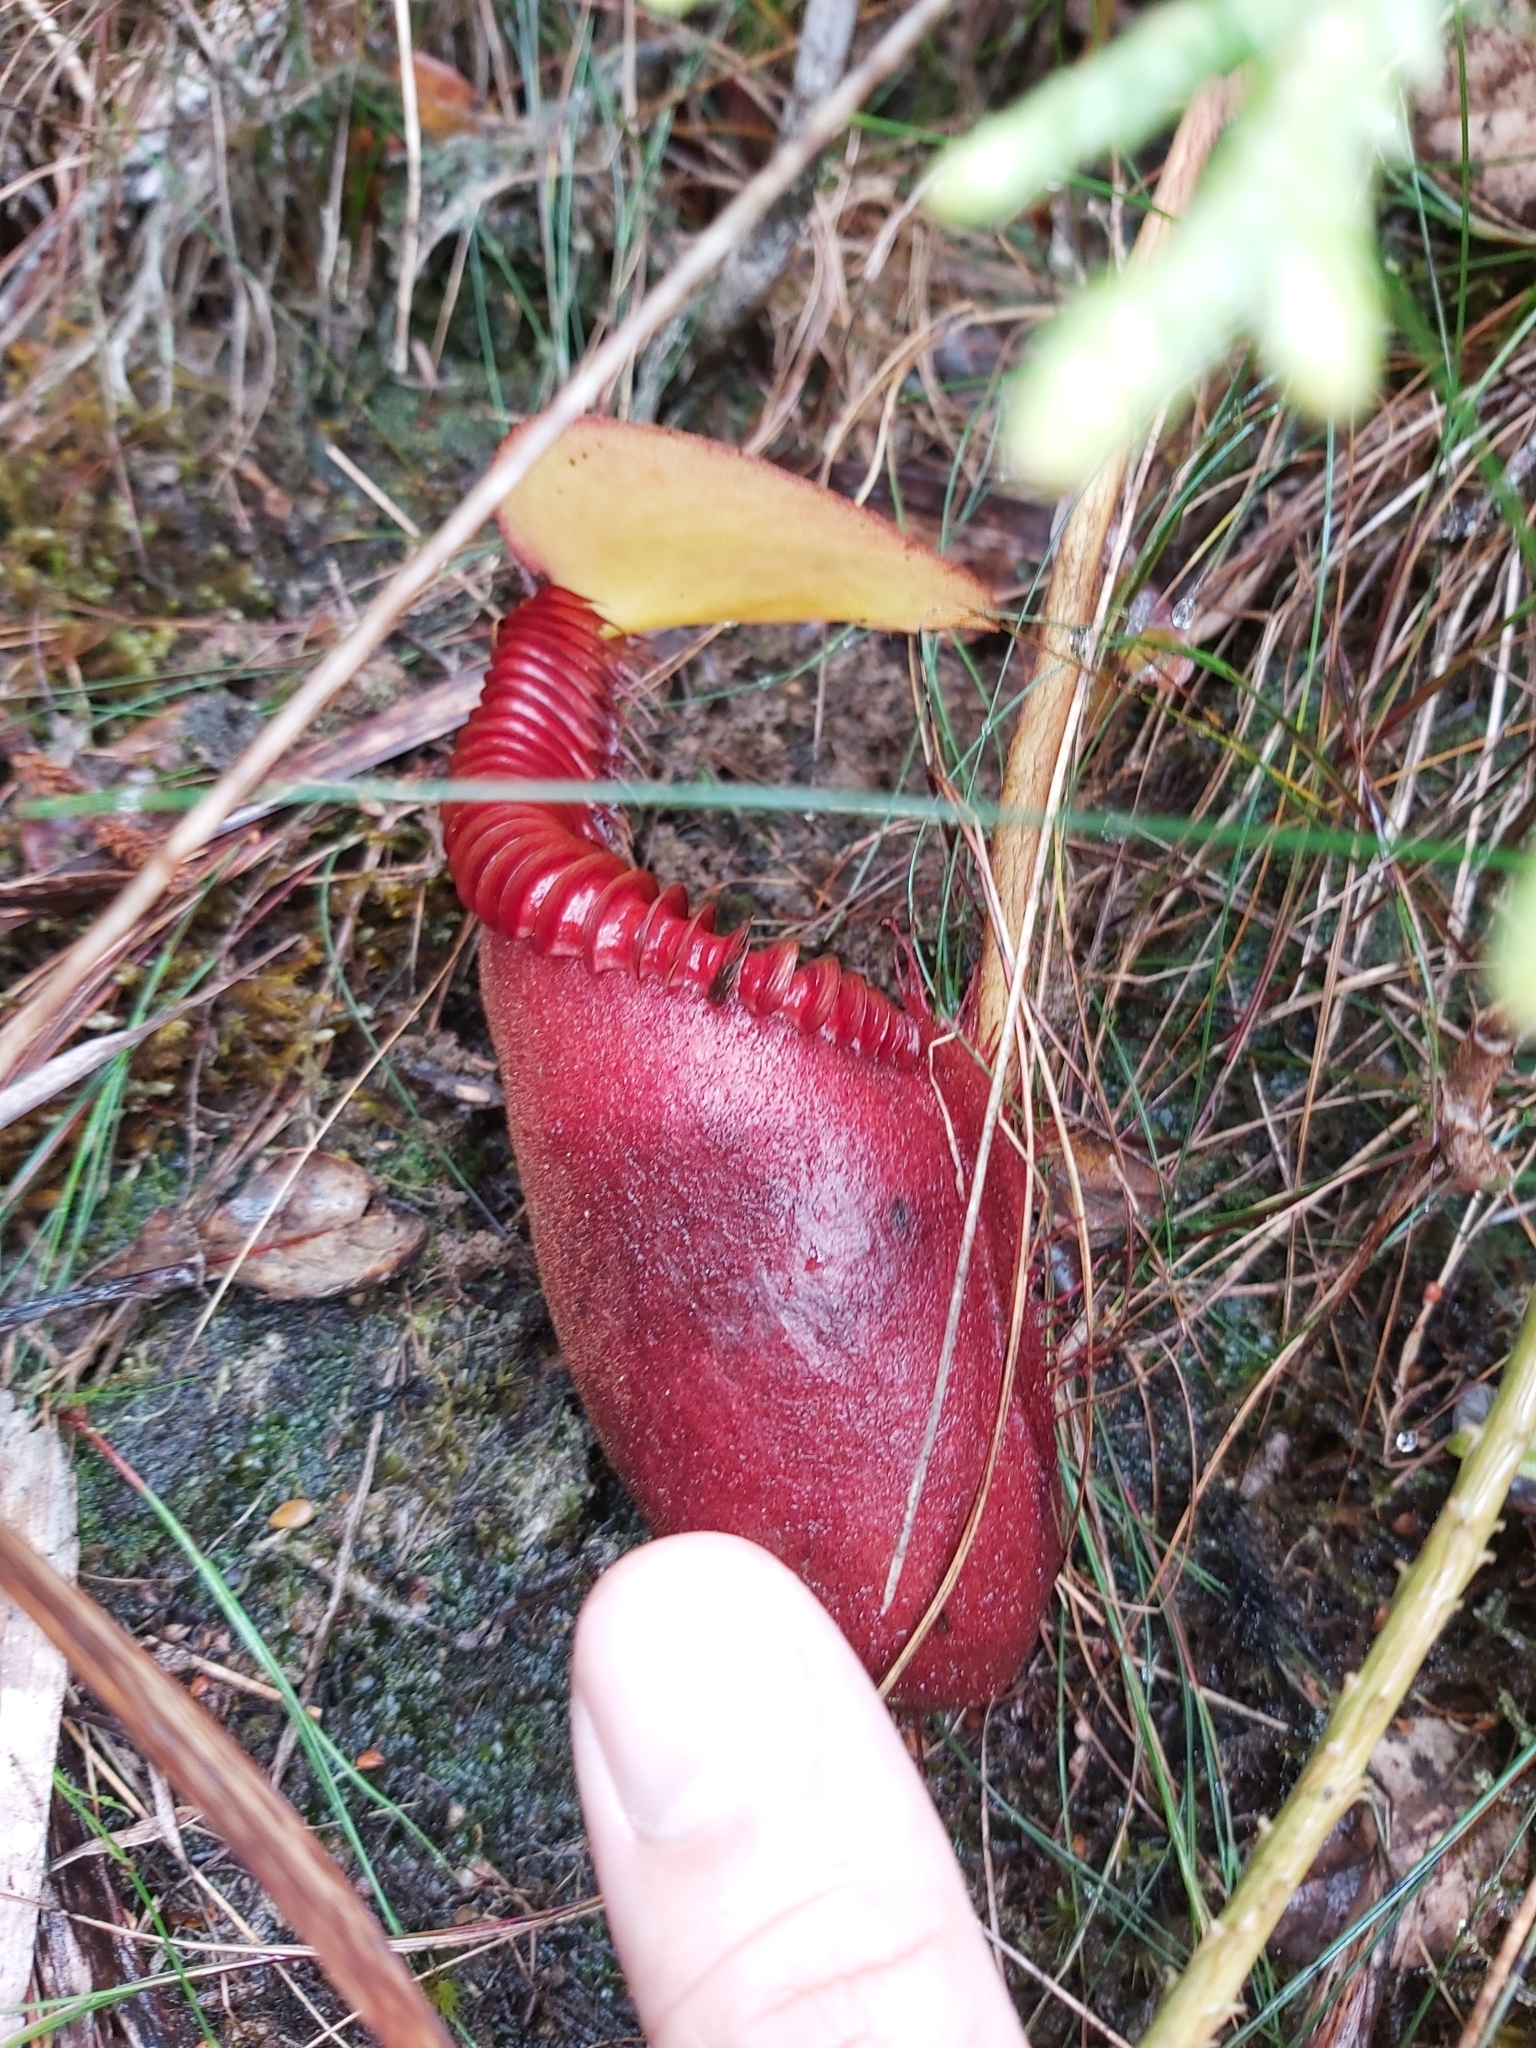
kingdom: Plantae
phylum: Tracheophyta
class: Magnoliopsida
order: Caryophyllales
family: Nepenthaceae
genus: Nepenthes
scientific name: Nepenthes villosa
